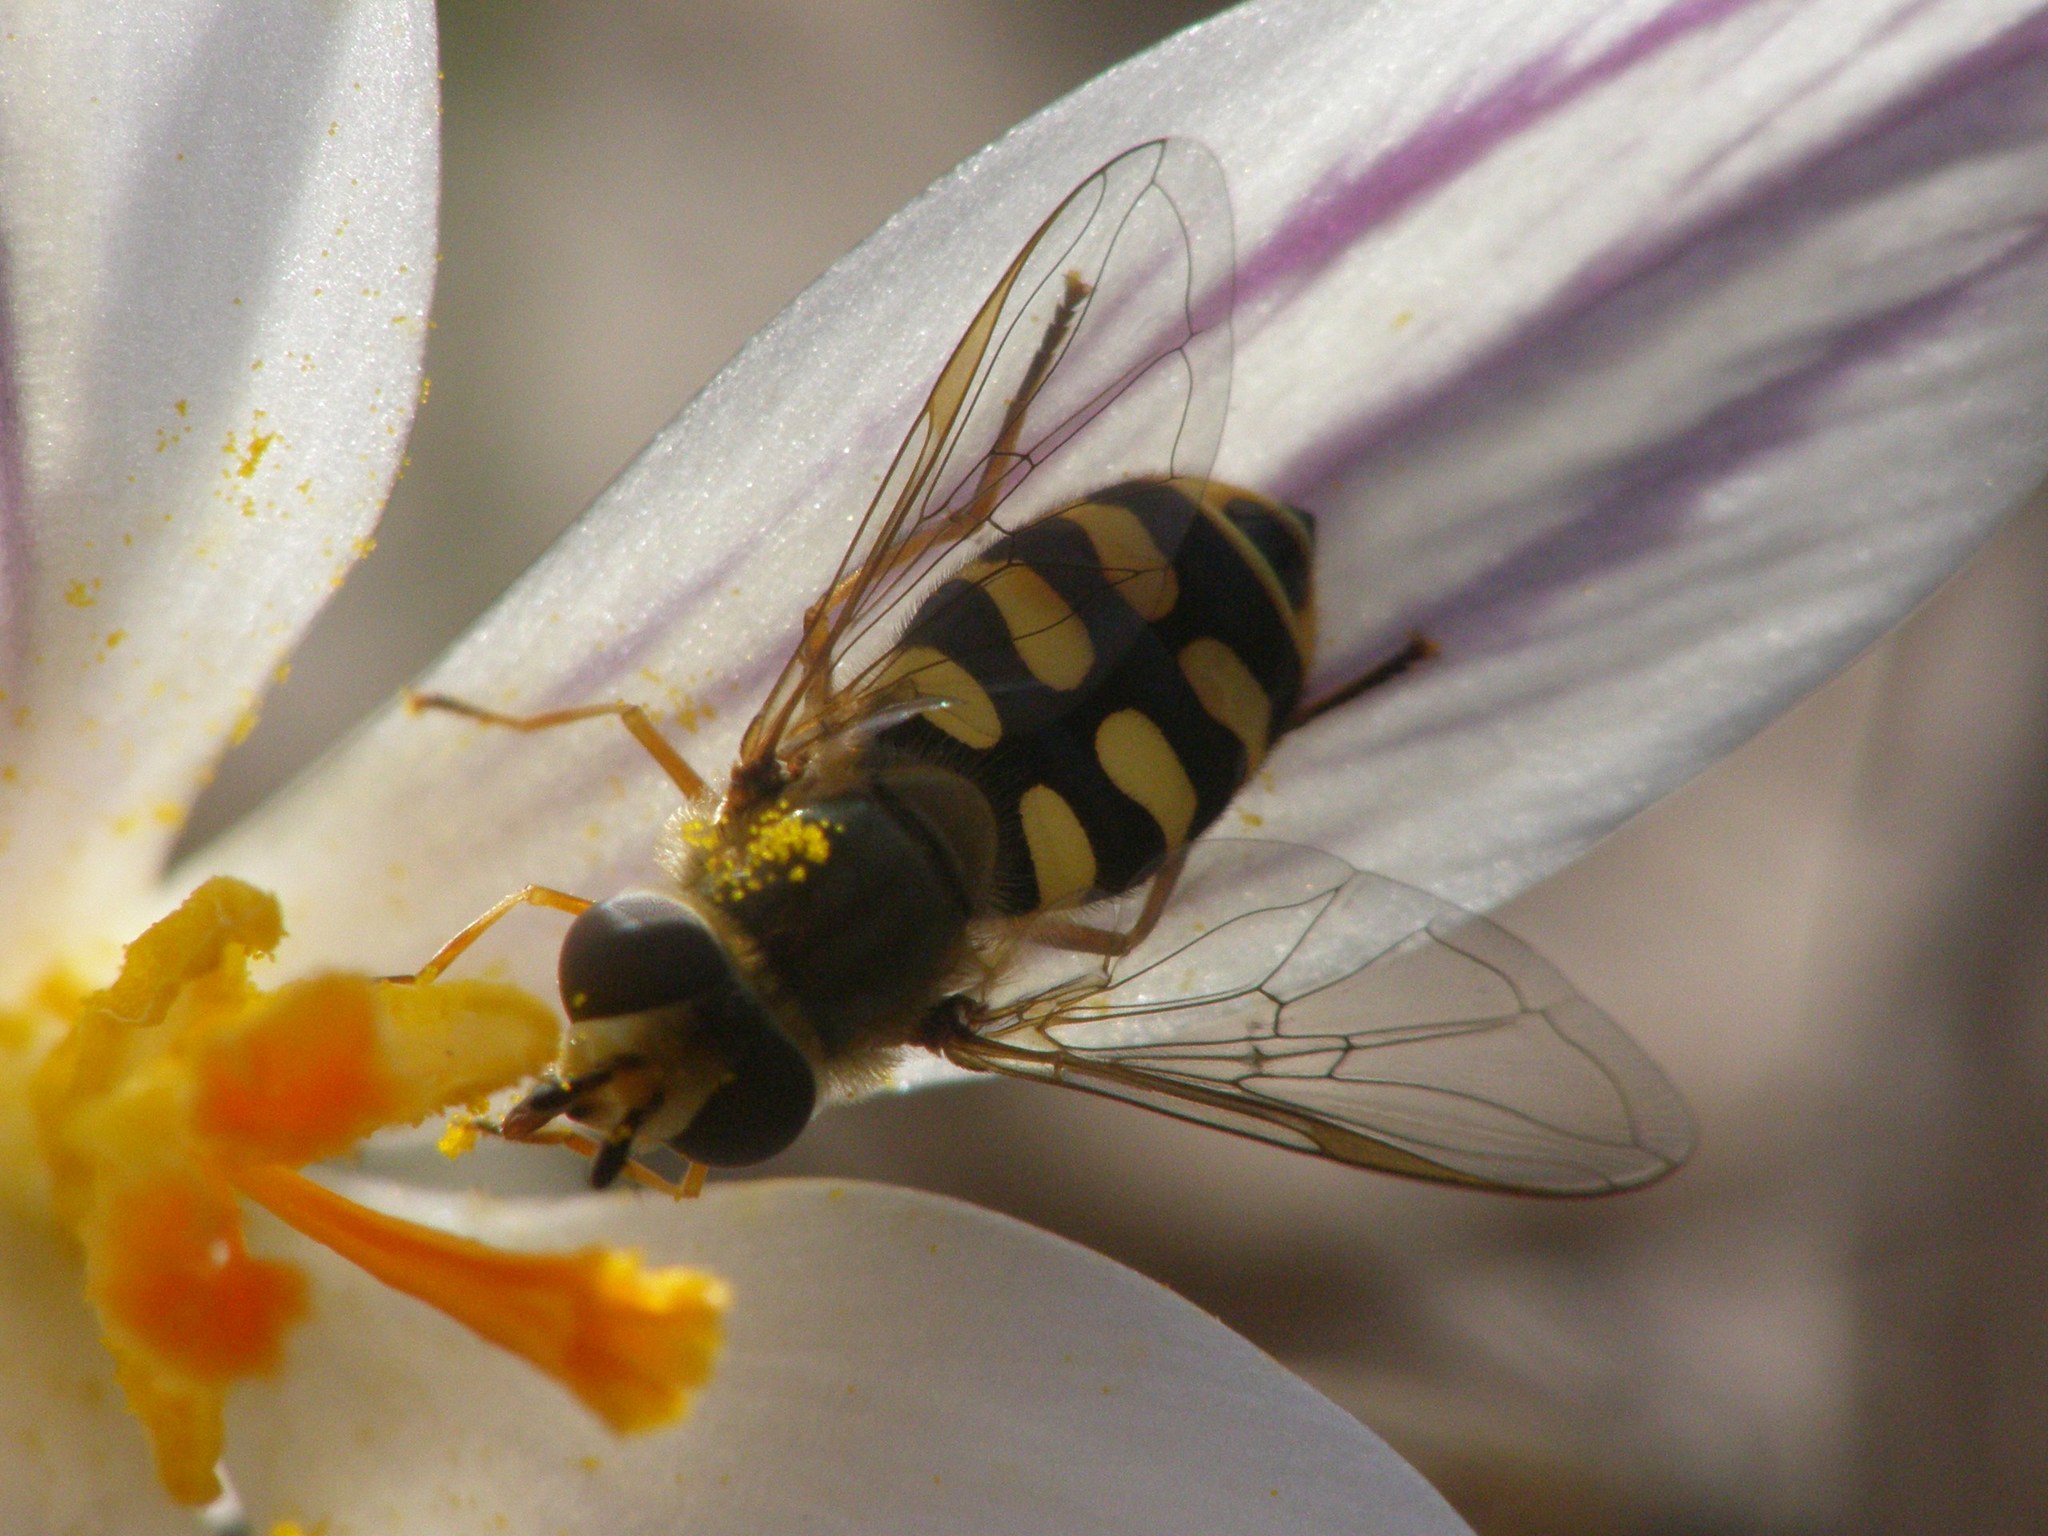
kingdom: Animalia
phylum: Arthropoda
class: Insecta
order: Diptera
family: Syrphidae
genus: Eupeodes
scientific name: Eupeodes corollae
